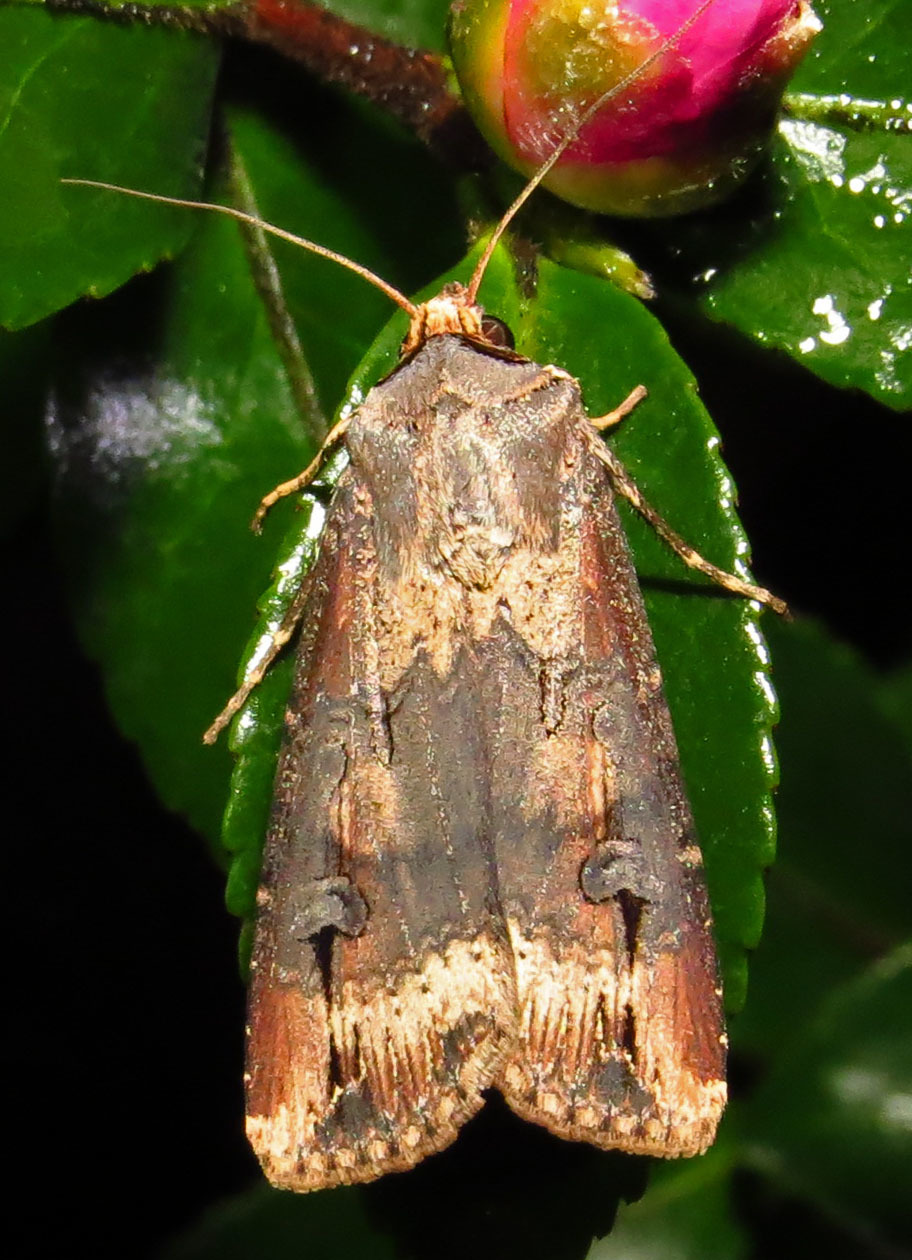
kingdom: Animalia
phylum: Arthropoda
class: Insecta
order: Lepidoptera
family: Noctuidae
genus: Agrotis
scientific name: Agrotis ipsilon
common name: Dark sword-grass
